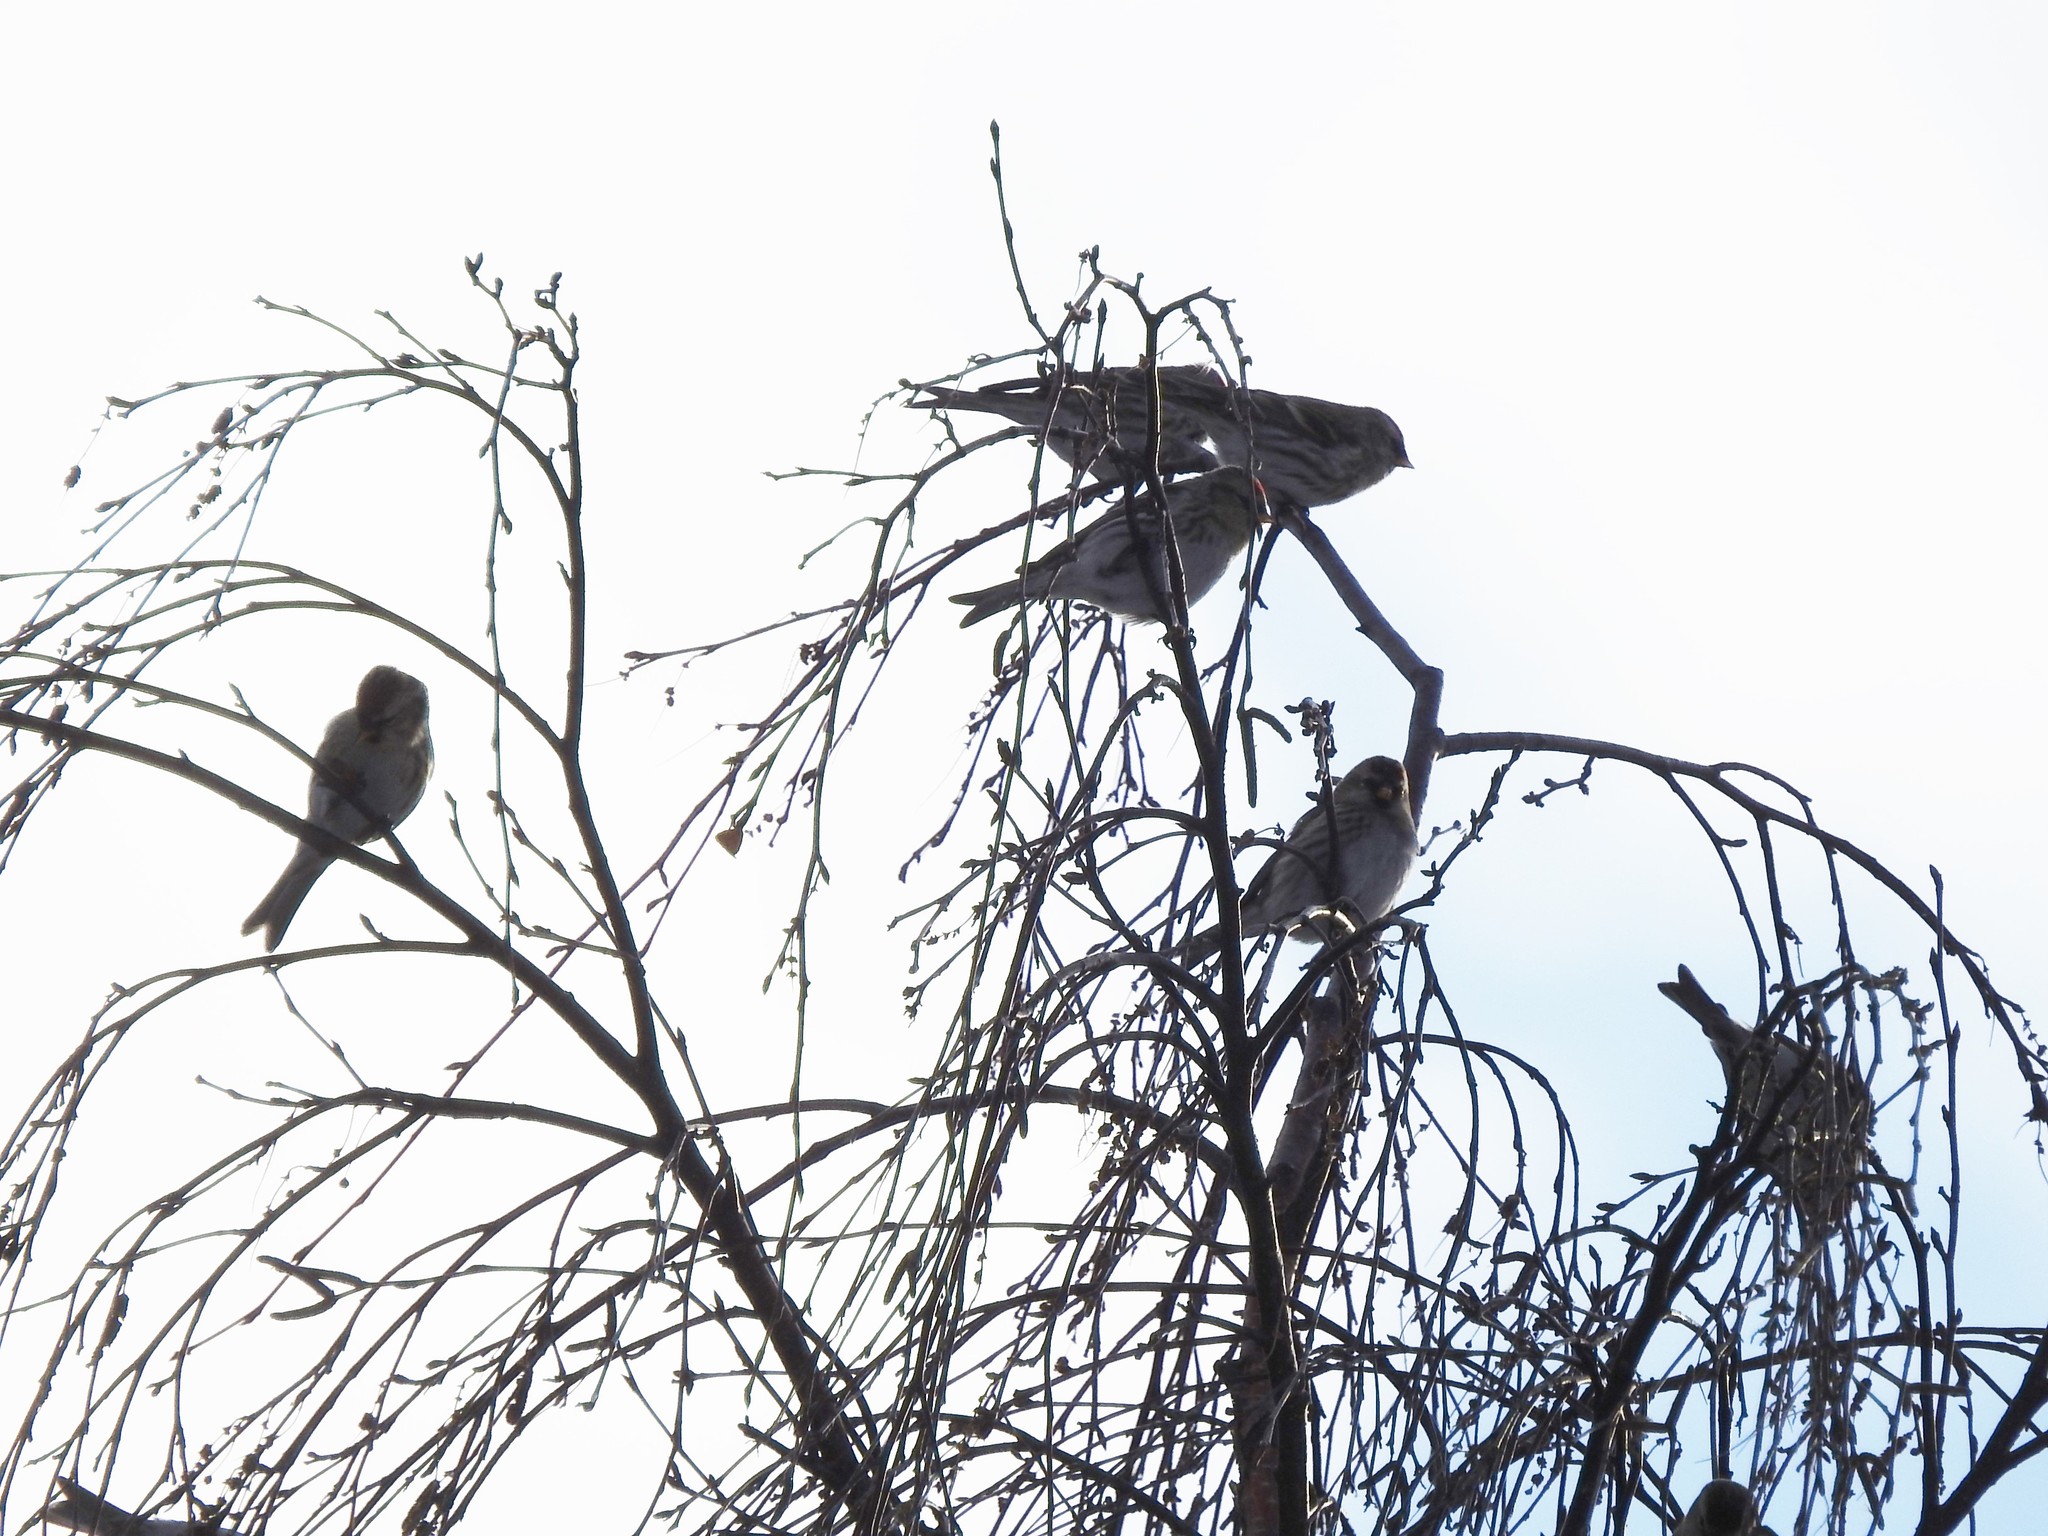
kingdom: Animalia
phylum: Chordata
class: Aves
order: Passeriformes
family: Fringillidae
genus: Acanthis
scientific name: Acanthis flammea
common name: Common redpoll
